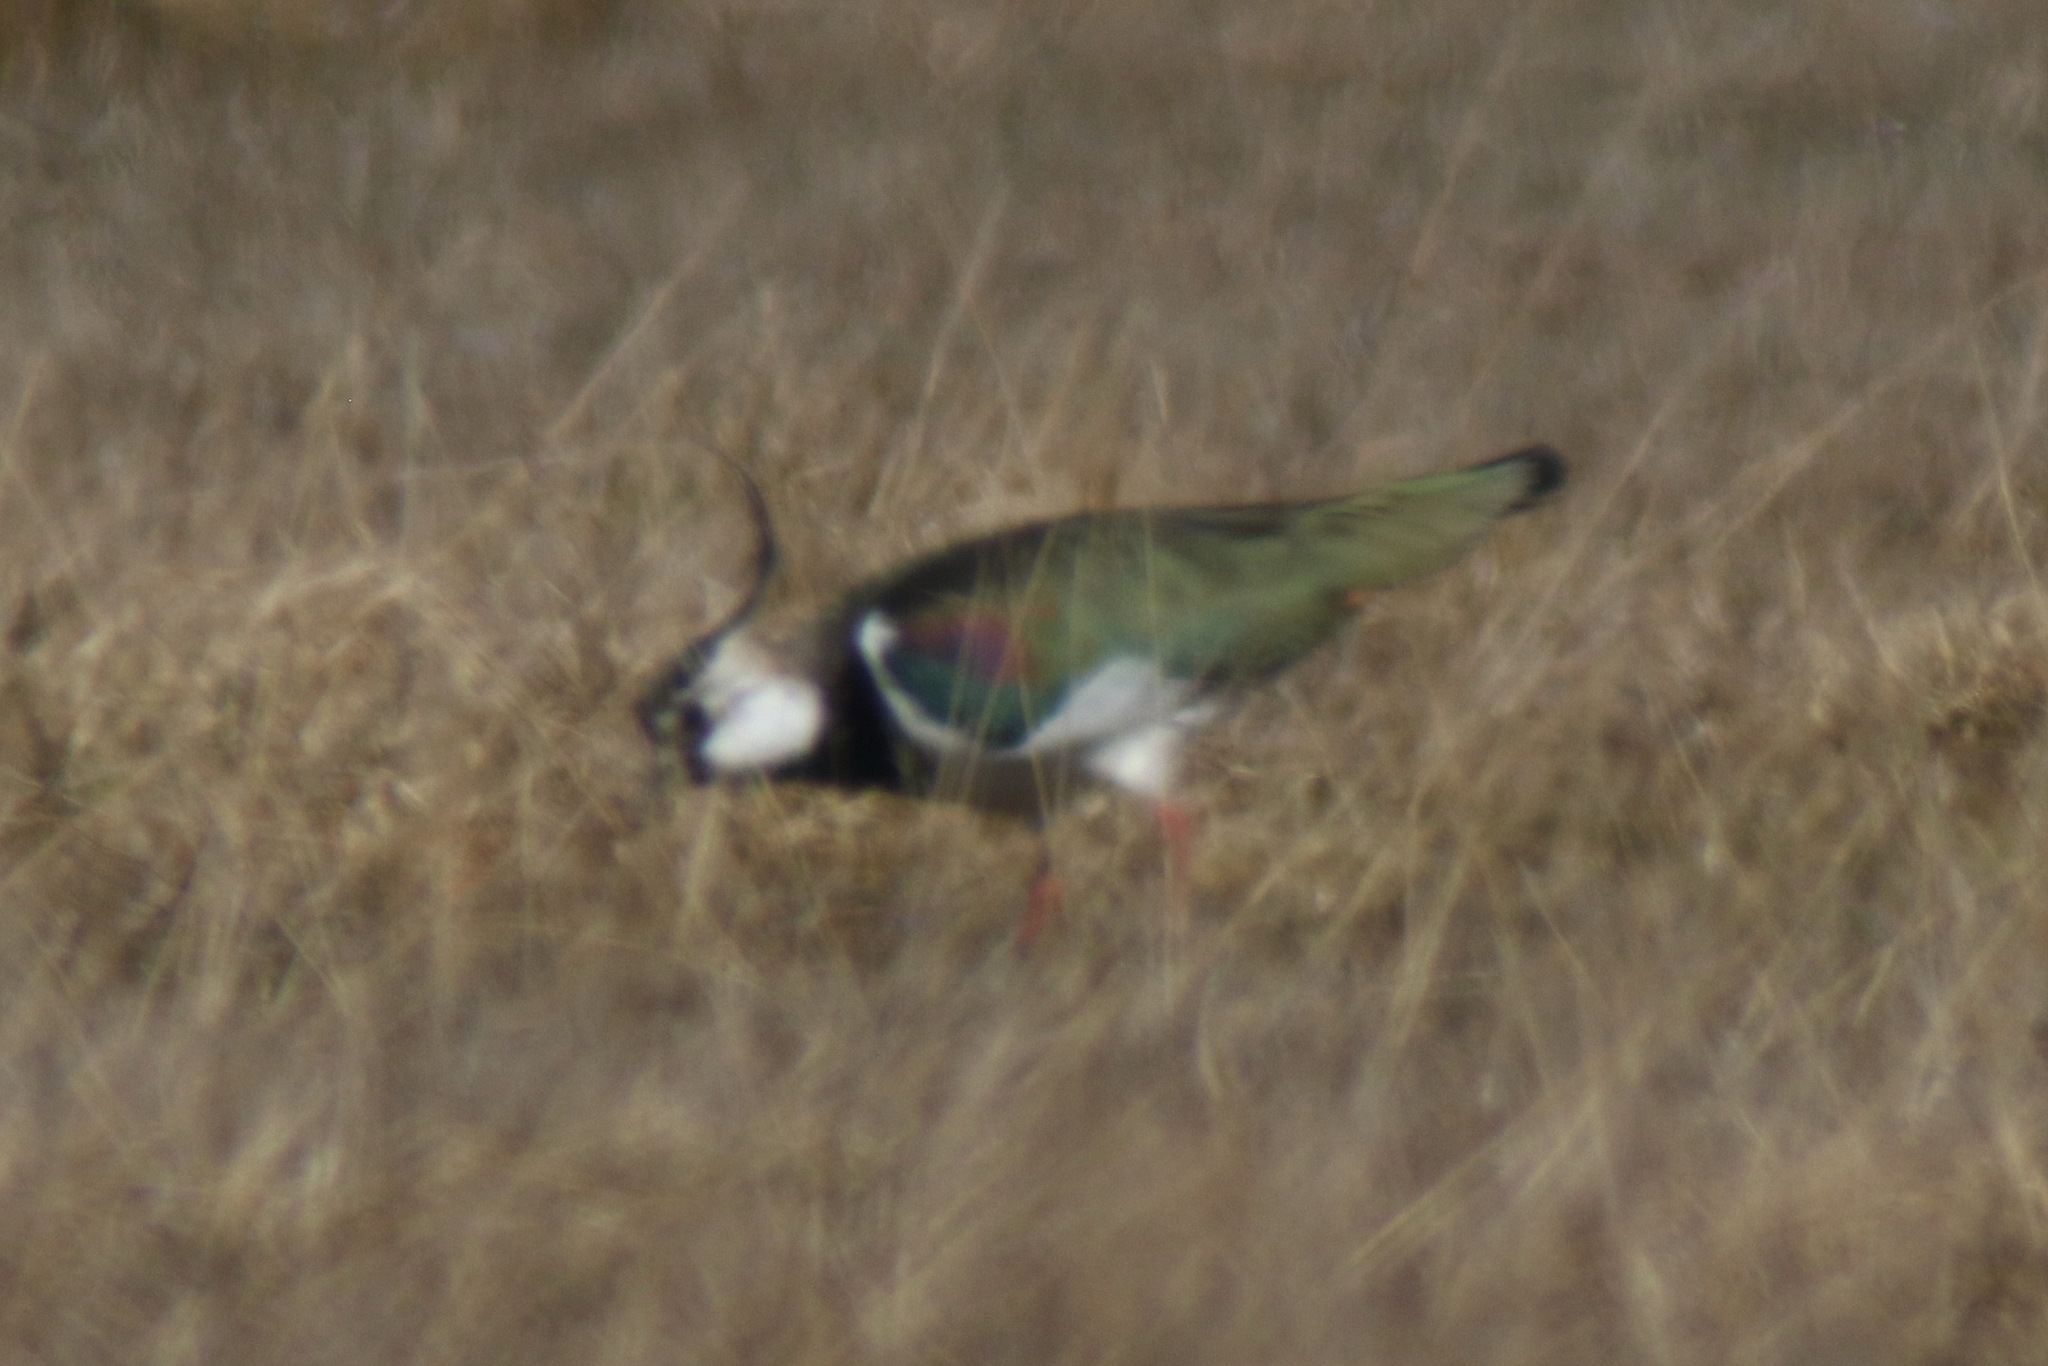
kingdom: Animalia
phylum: Chordata
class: Aves
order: Charadriiformes
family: Charadriidae
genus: Vanellus
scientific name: Vanellus vanellus
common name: Northern lapwing
